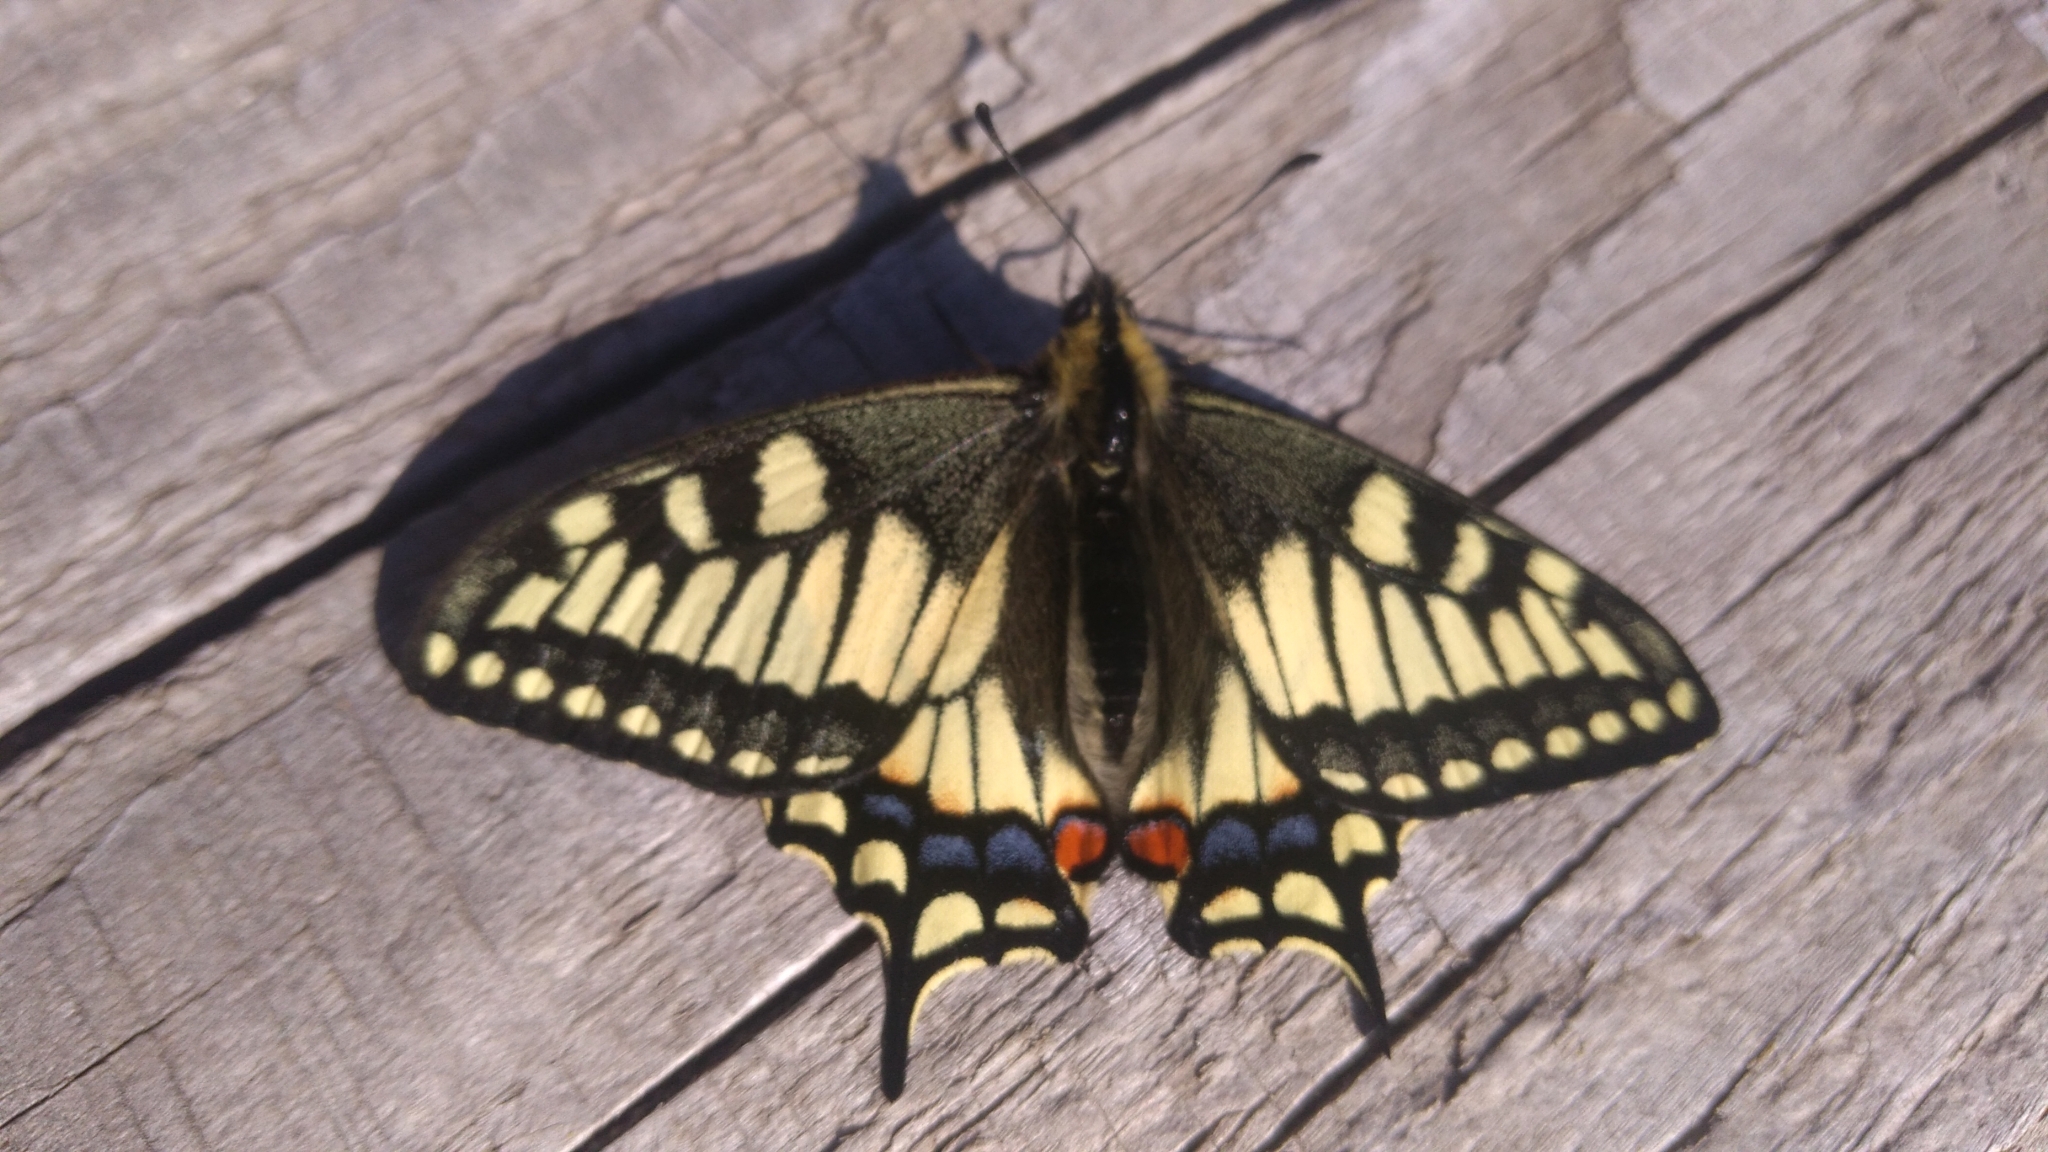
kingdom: Animalia
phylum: Arthropoda
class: Insecta
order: Lepidoptera
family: Papilionidae
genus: Papilio
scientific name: Papilio machaon
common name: Swallowtail
